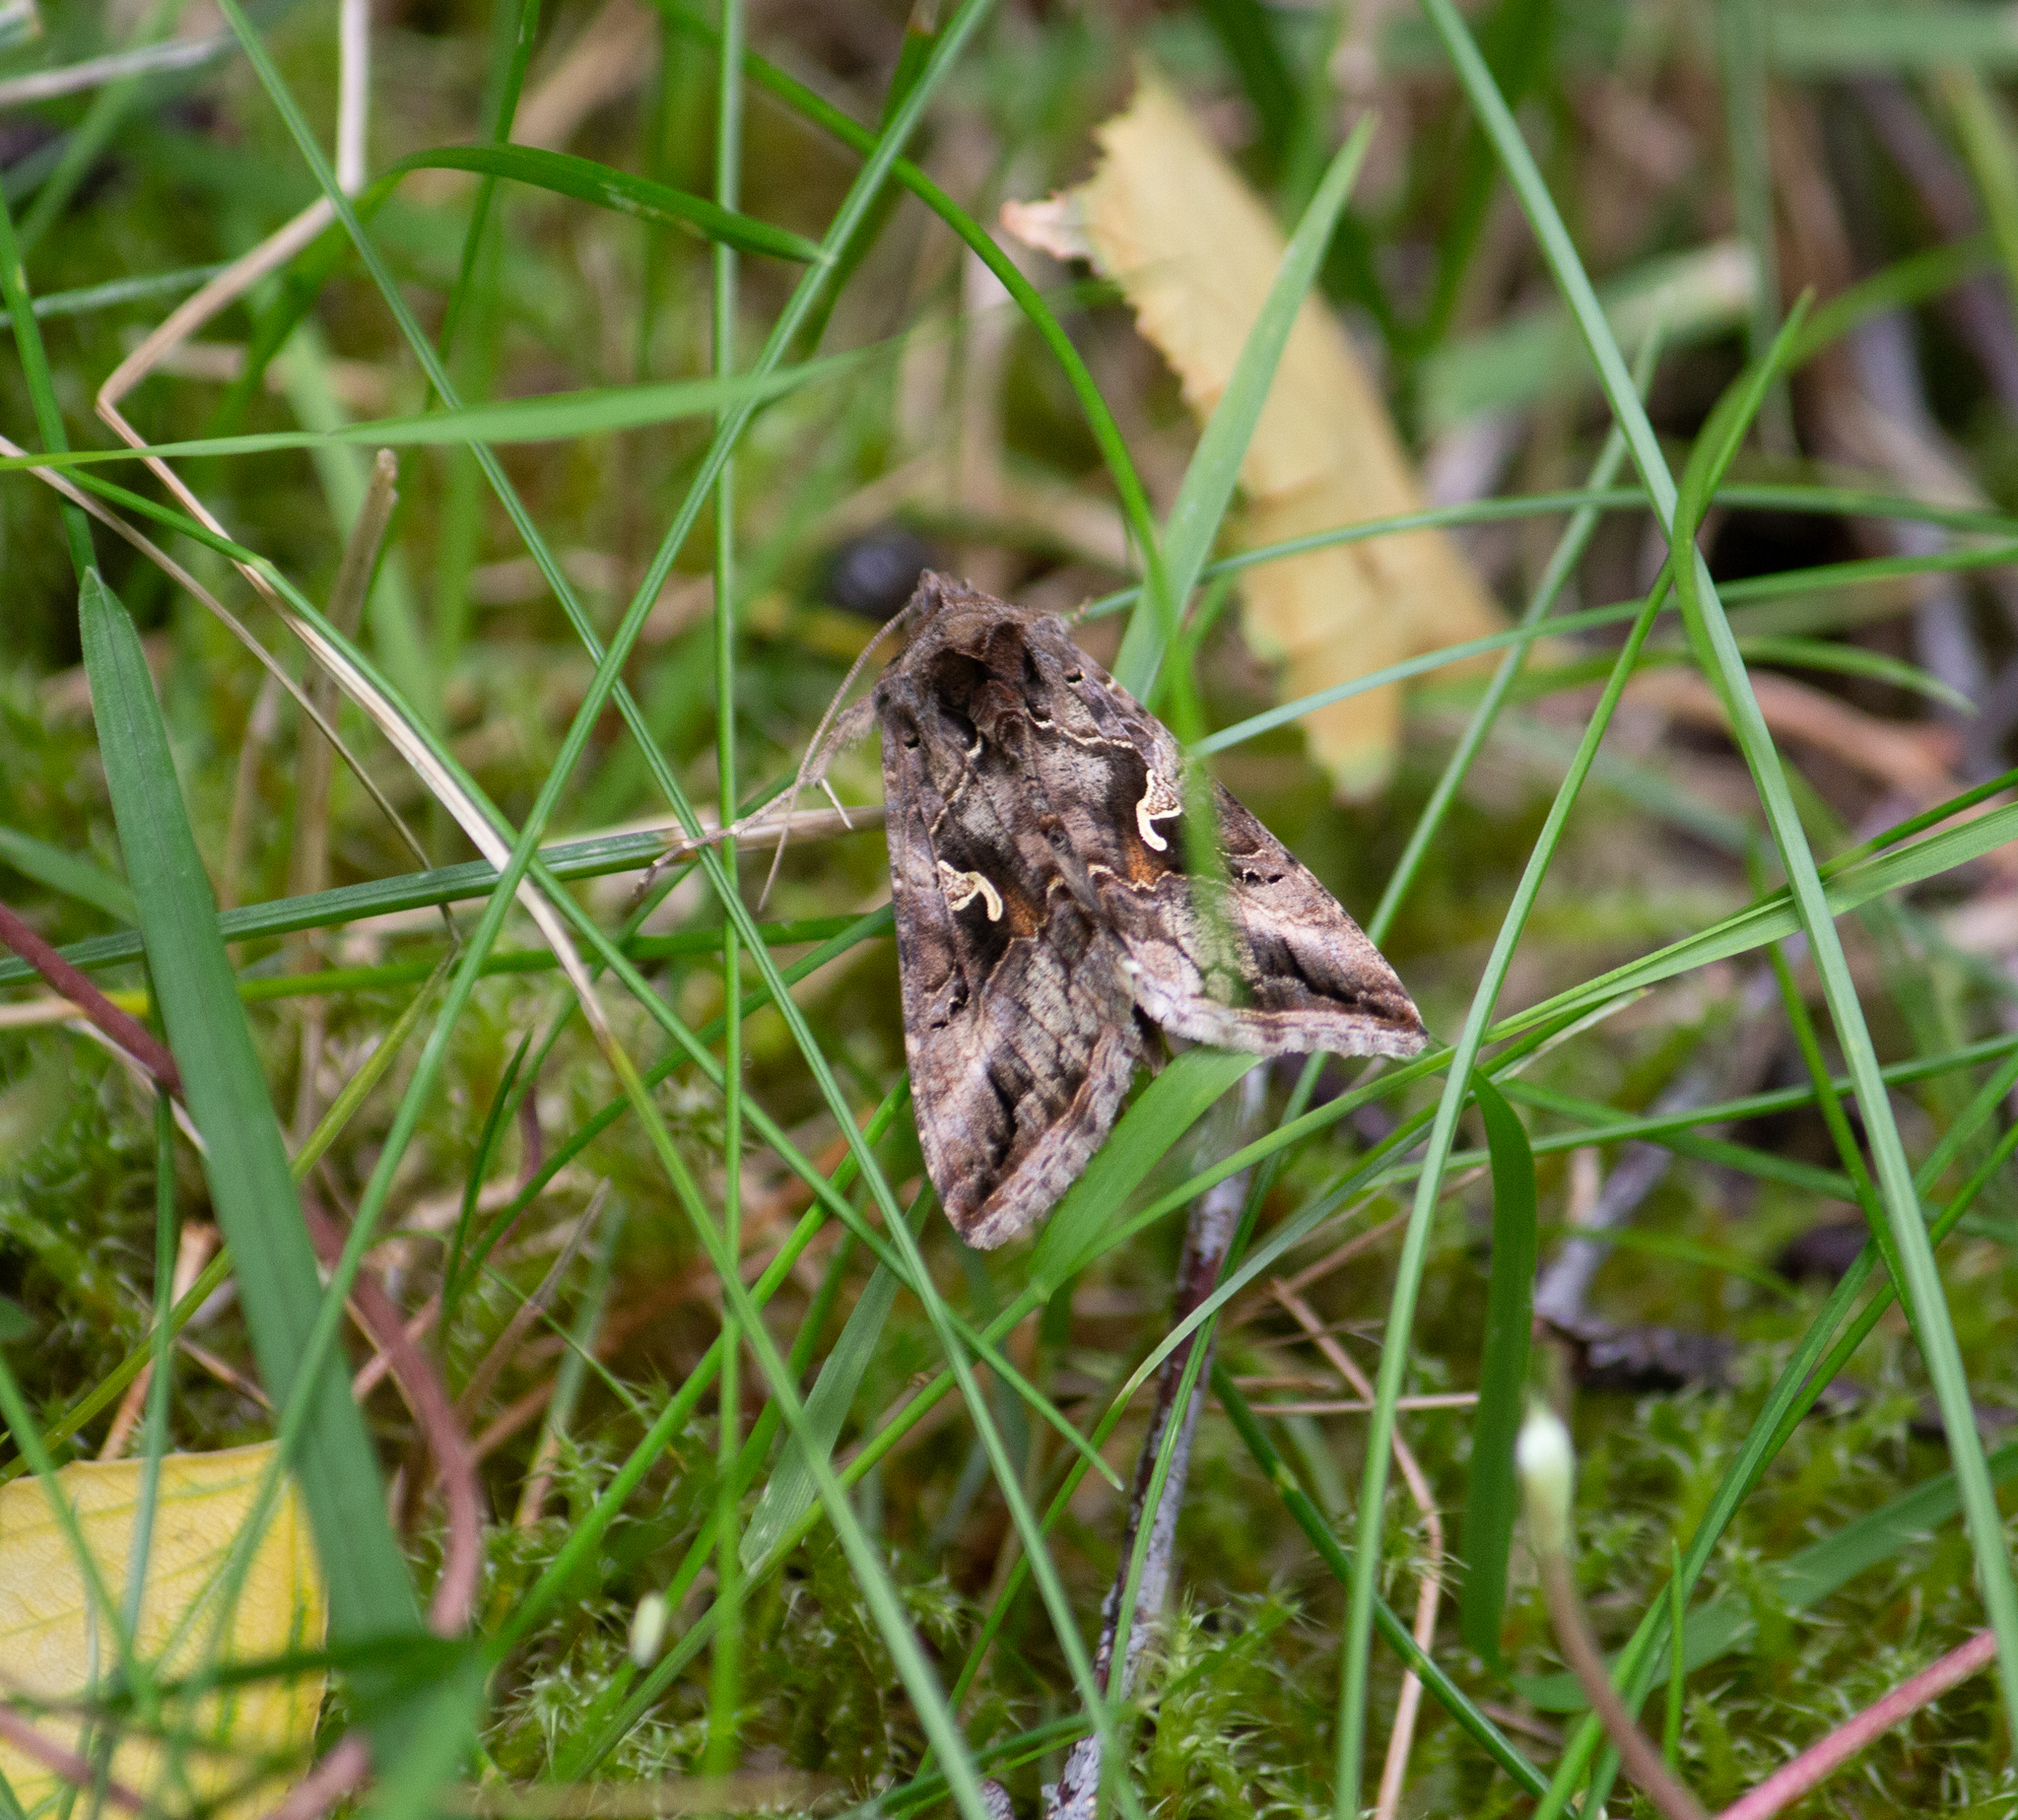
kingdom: Animalia
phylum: Arthropoda
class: Insecta
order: Lepidoptera
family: Noctuidae
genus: Autographa
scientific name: Autographa gamma
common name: Silver y
